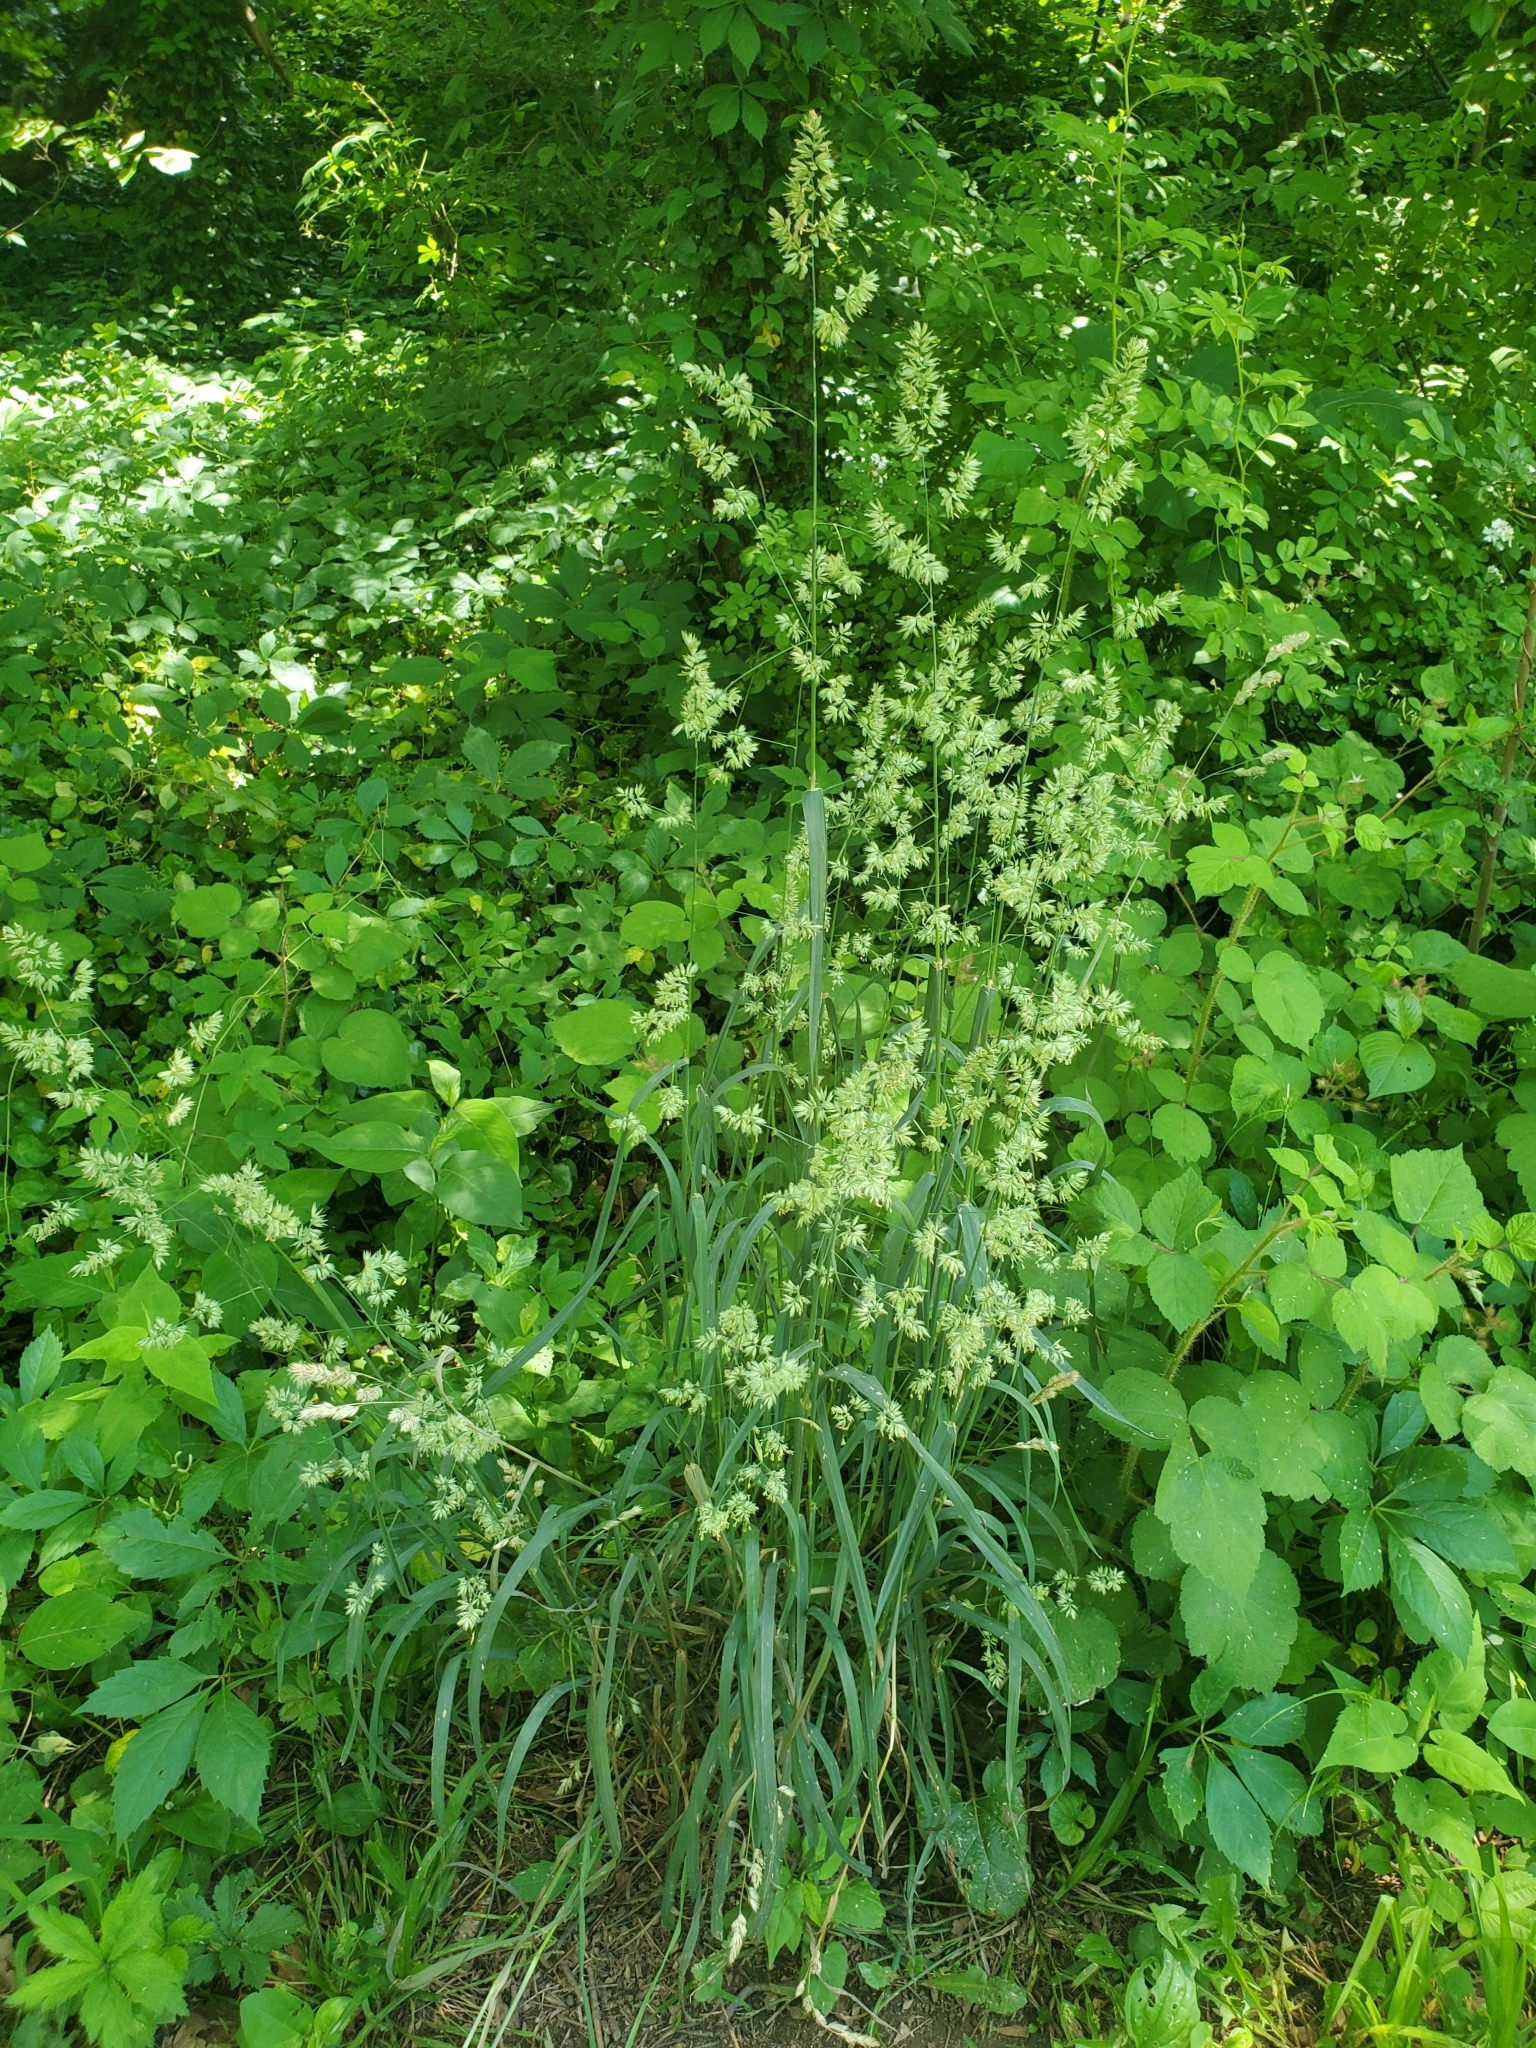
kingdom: Plantae
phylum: Tracheophyta
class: Liliopsida
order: Poales
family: Poaceae
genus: Dactylis
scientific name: Dactylis glomerata
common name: Orchardgrass
